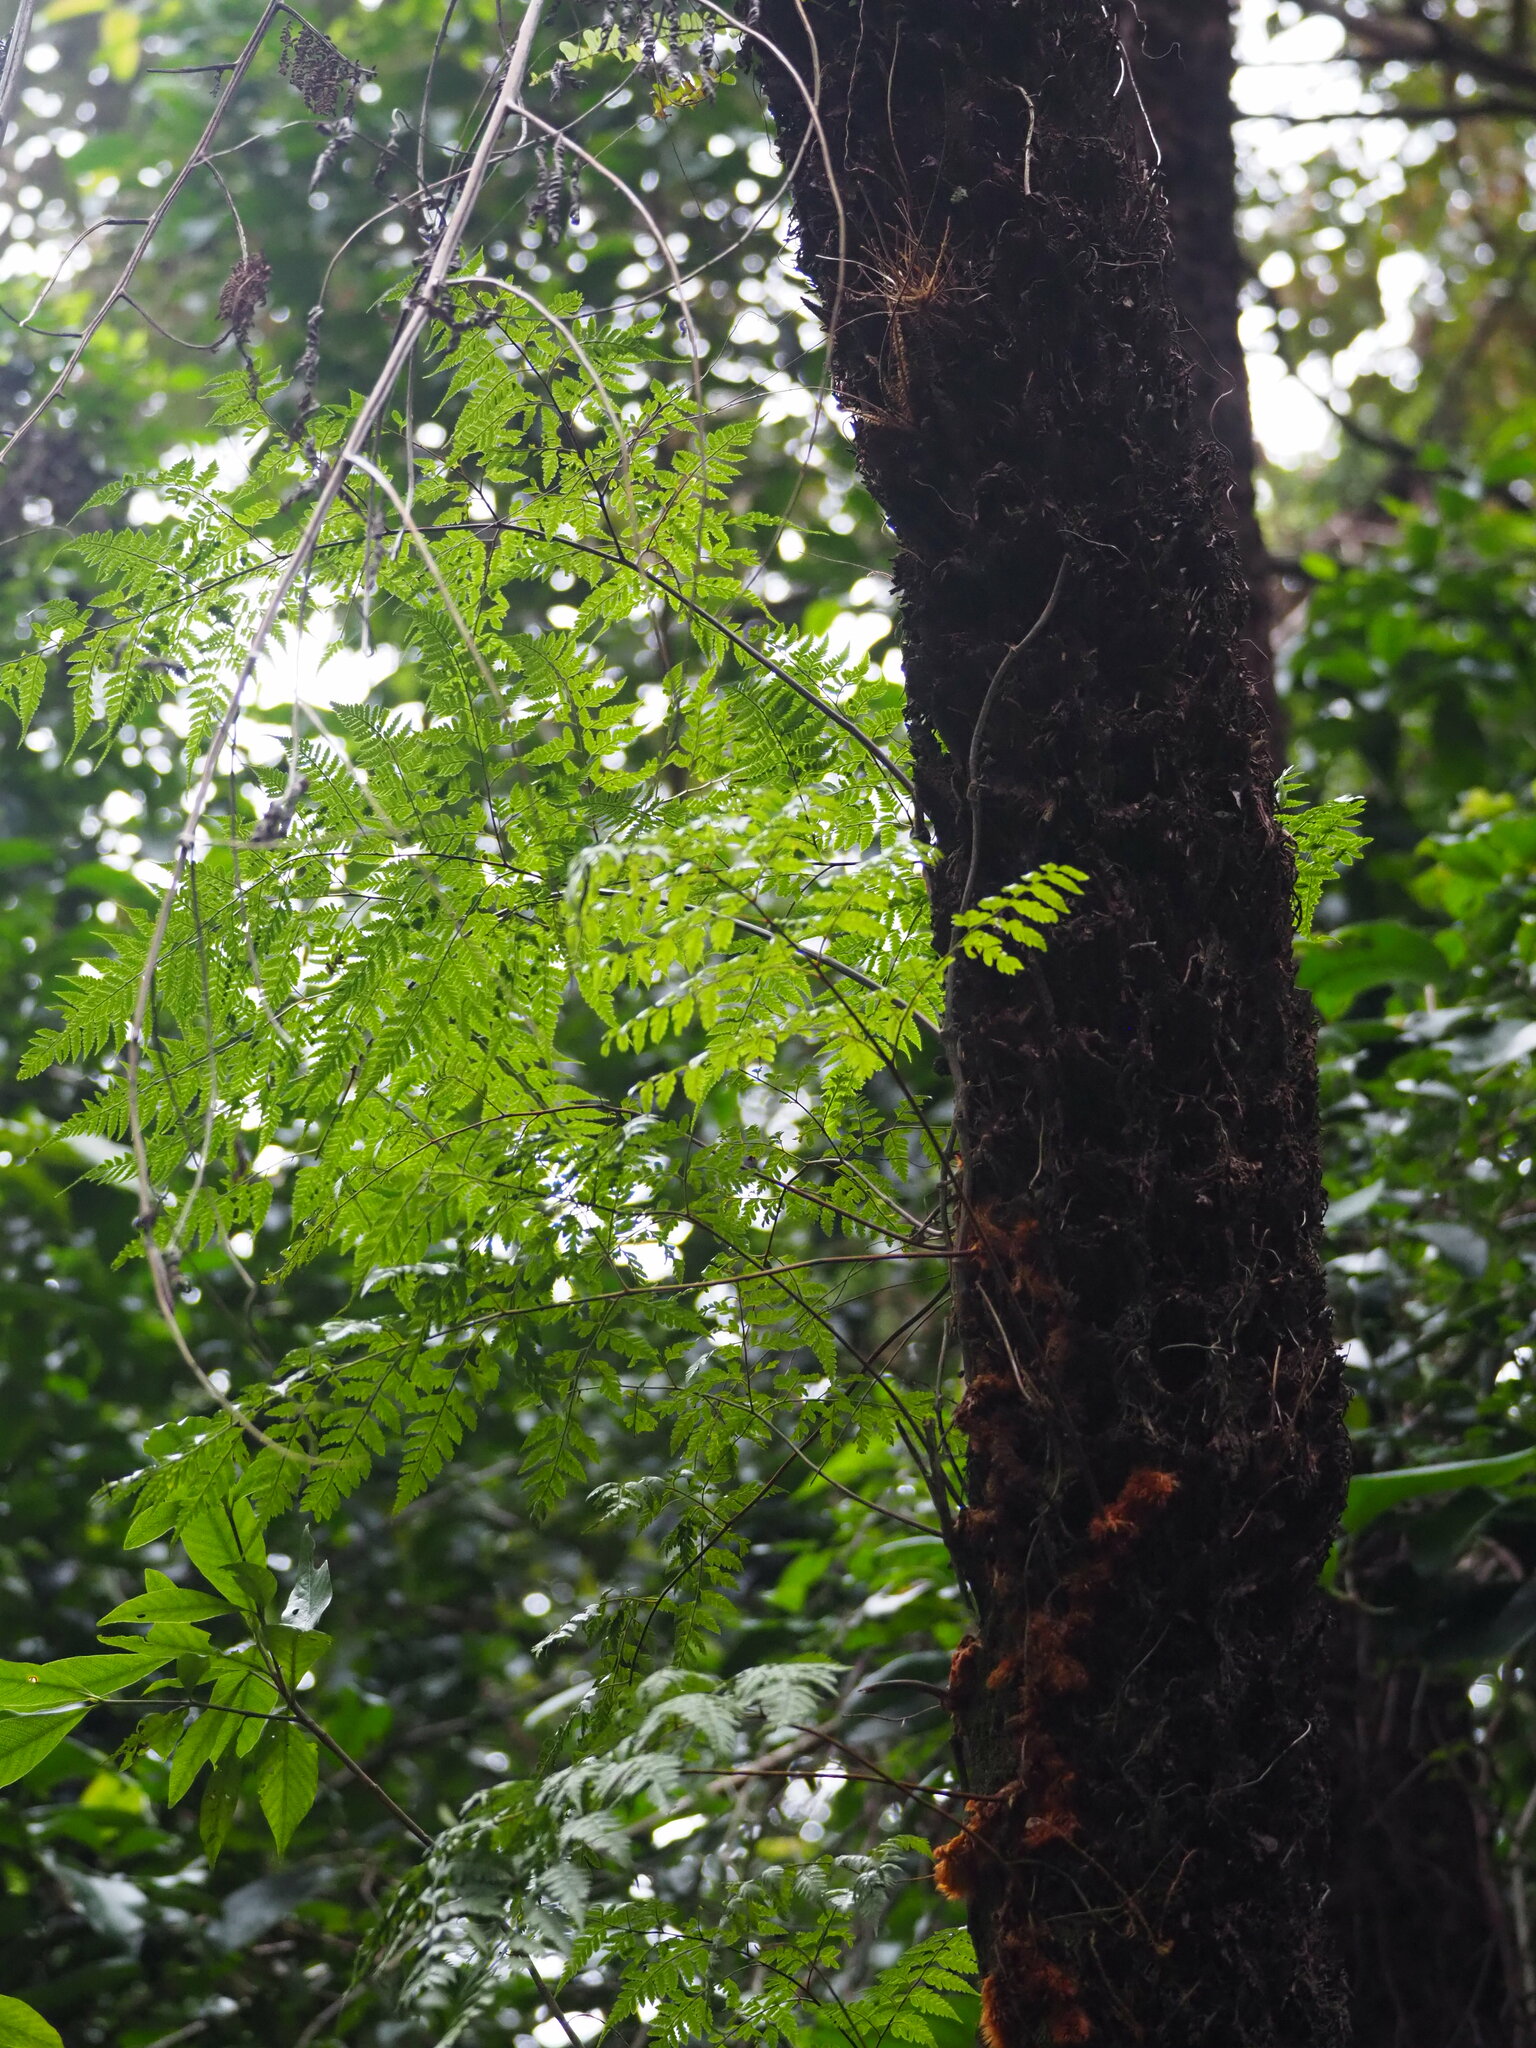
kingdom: Plantae
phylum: Tracheophyta
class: Polypodiopsida
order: Polypodiales
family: Davalliaceae
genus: Davallia
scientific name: Davallia divaricata
